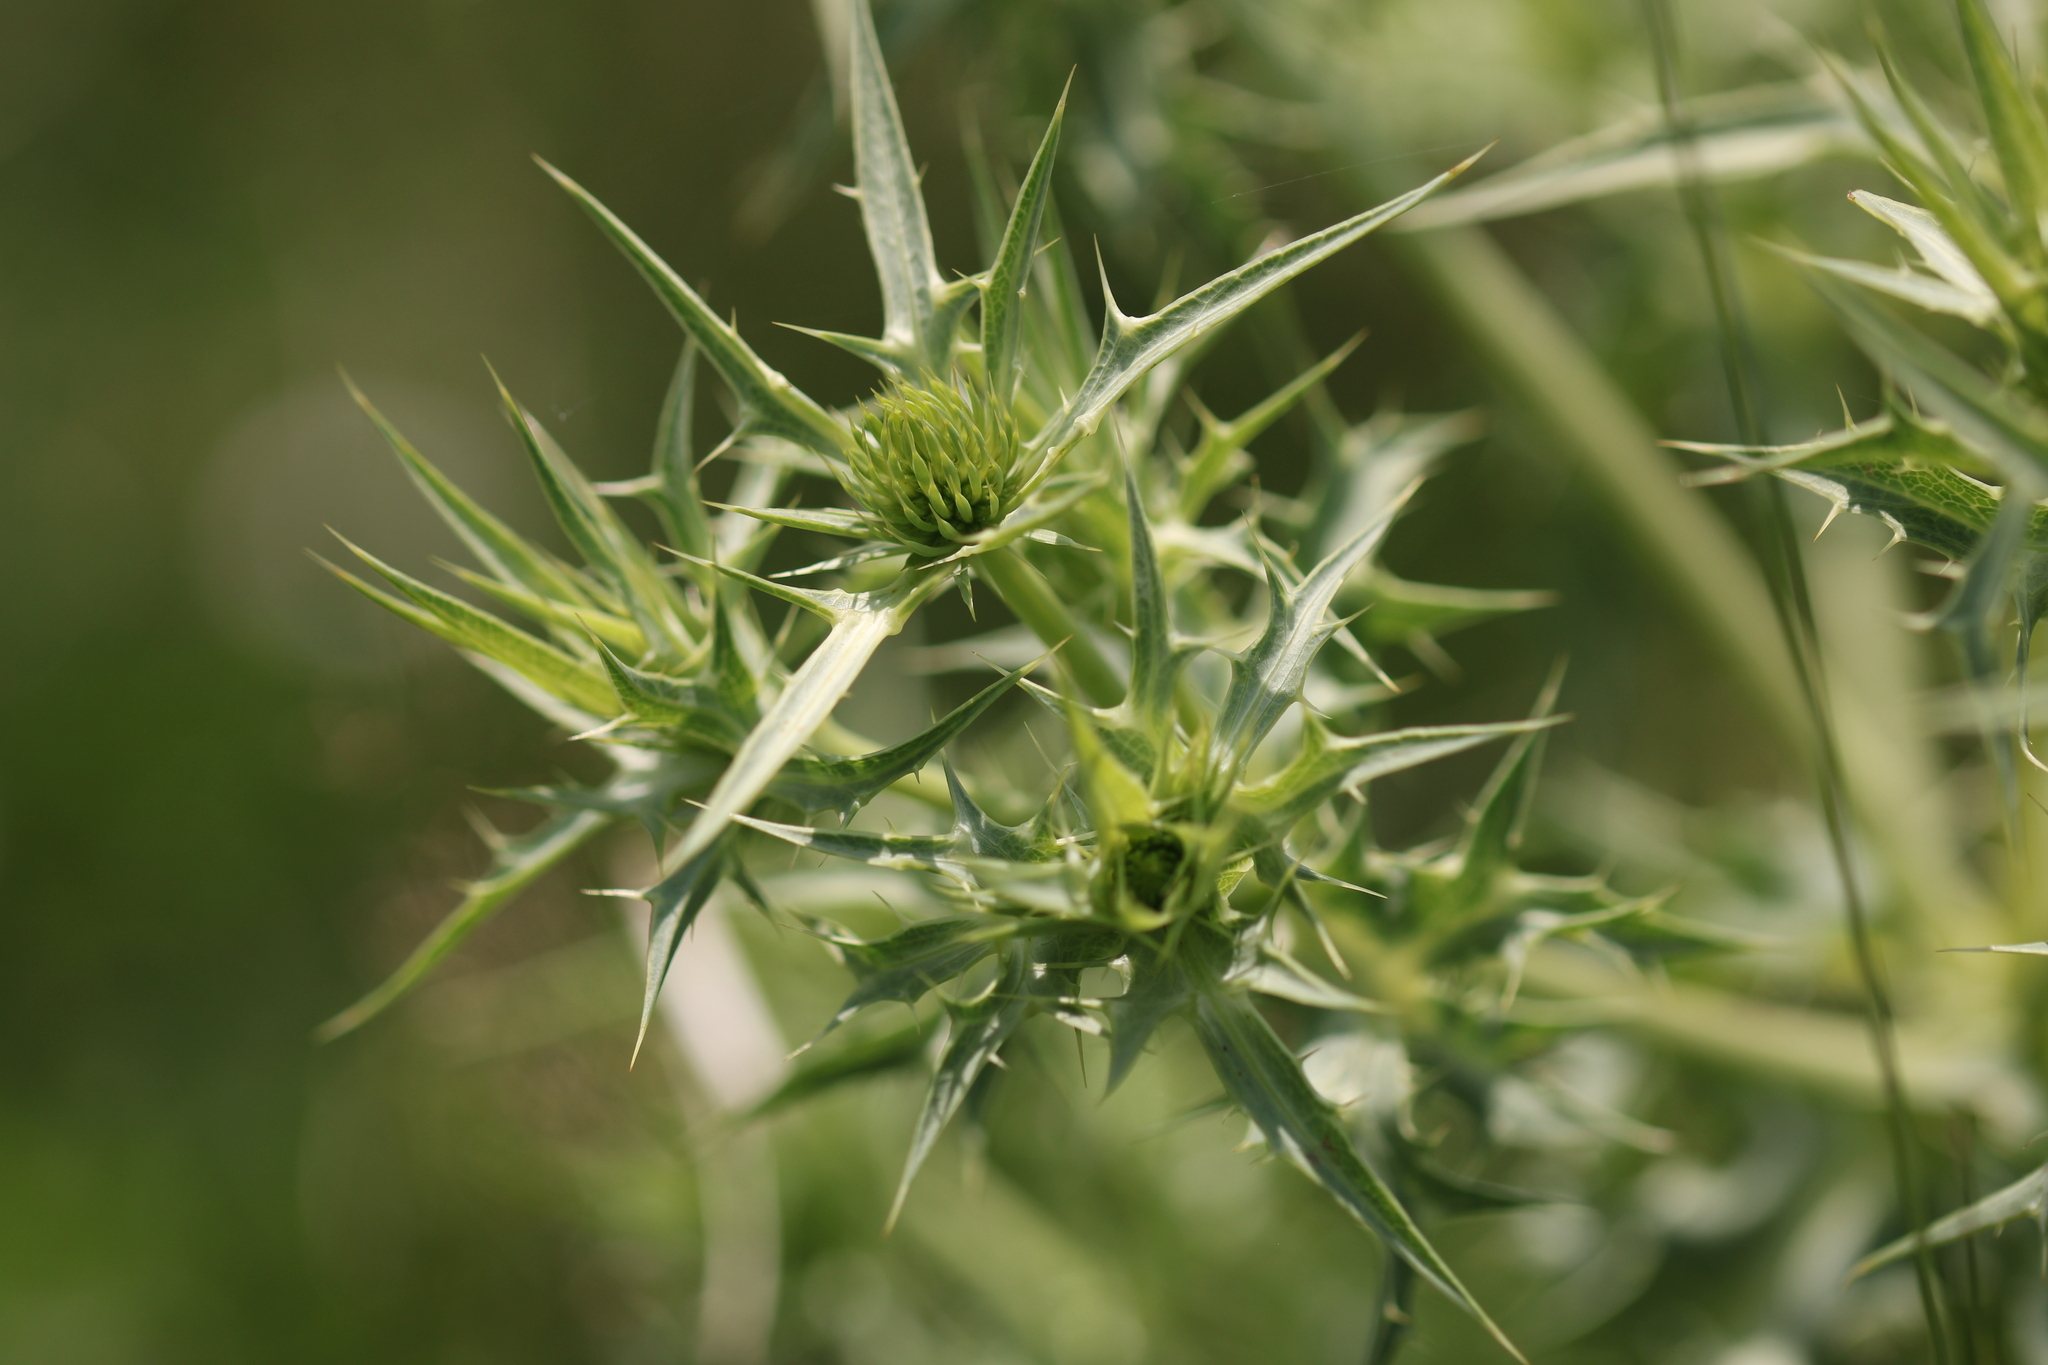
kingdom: Plantae
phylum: Tracheophyta
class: Magnoliopsida
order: Apiales
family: Apiaceae
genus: Eryngium
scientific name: Eryngium campestre
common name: Field eryngo
